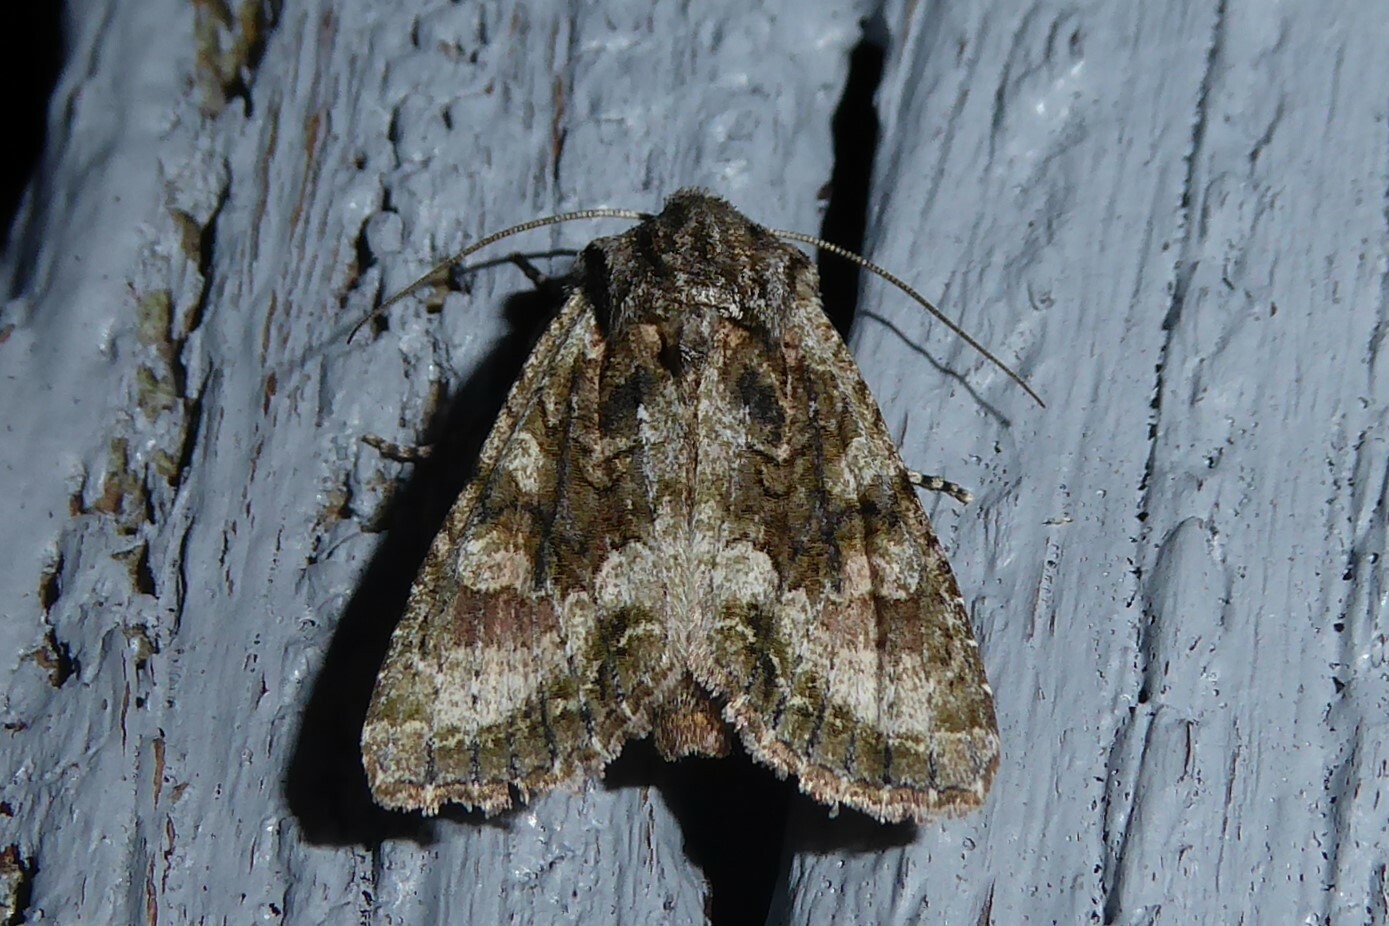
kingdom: Animalia
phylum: Arthropoda
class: Insecta
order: Lepidoptera
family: Noctuidae
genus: Ichneutica
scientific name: Ichneutica mutans
